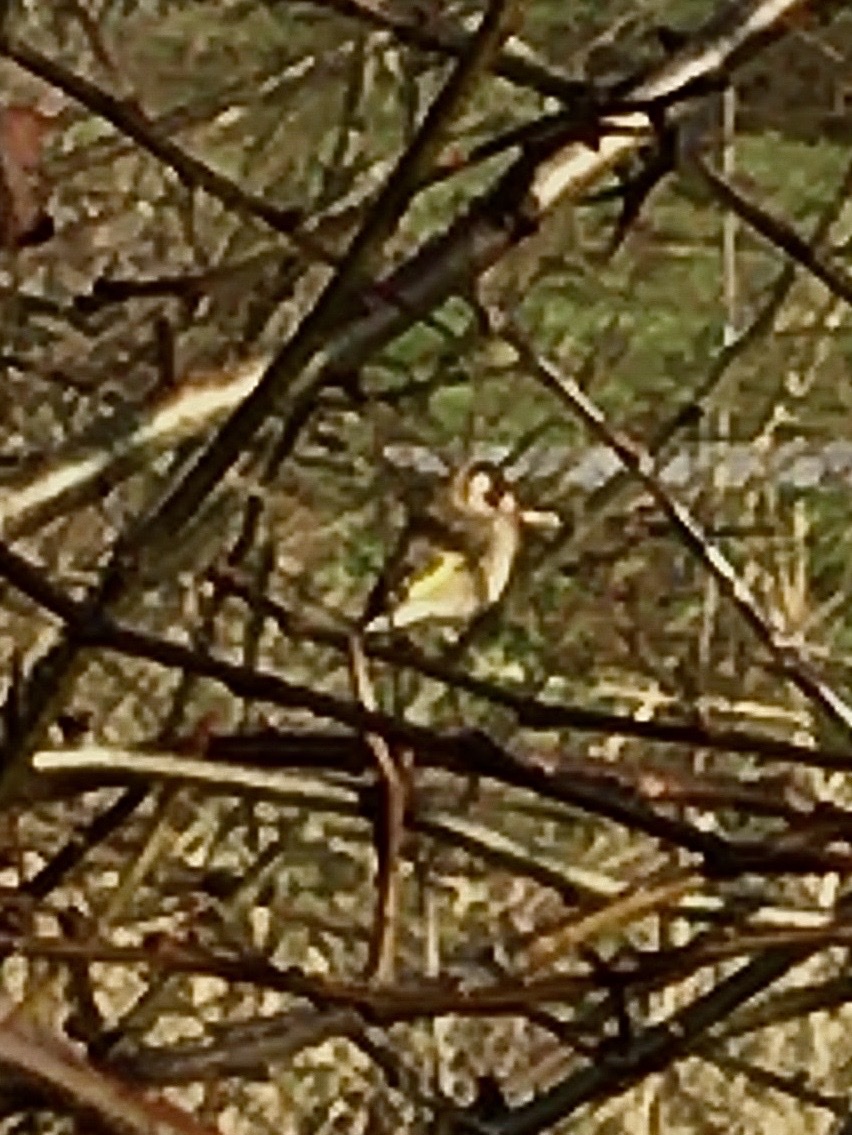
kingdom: Animalia
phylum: Chordata
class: Aves
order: Passeriformes
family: Fringillidae
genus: Carduelis
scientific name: Carduelis carduelis
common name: European goldfinch
